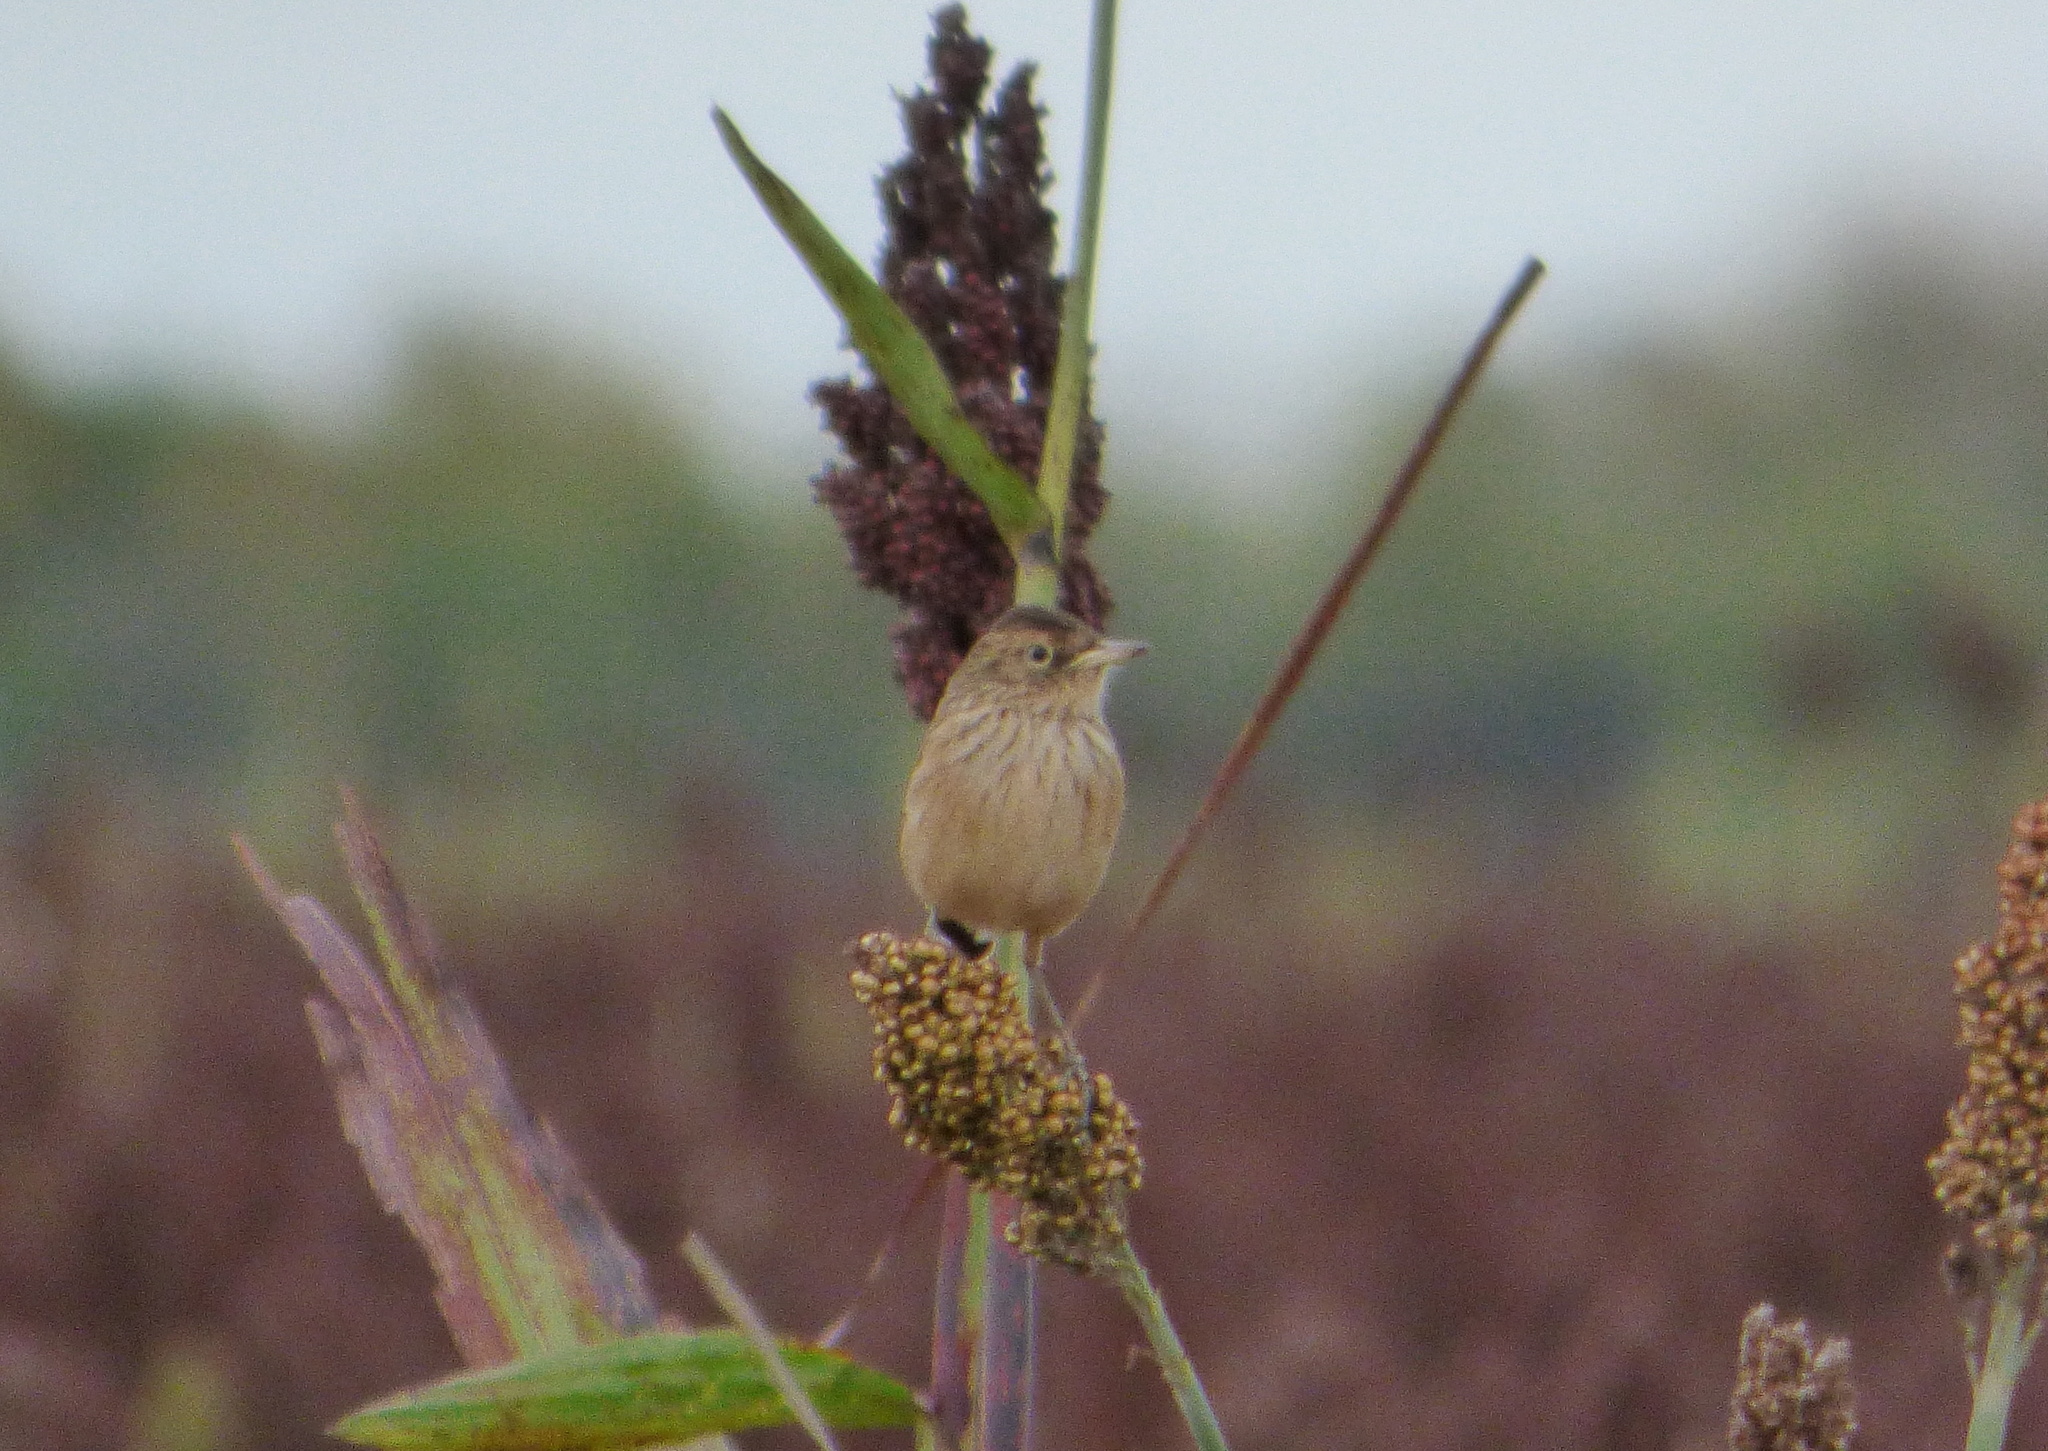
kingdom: Animalia
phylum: Chordata
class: Aves
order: Passeriformes
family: Tyrannidae
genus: Hymenops
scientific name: Hymenops perspicillatus
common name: Spectacled tyrant
